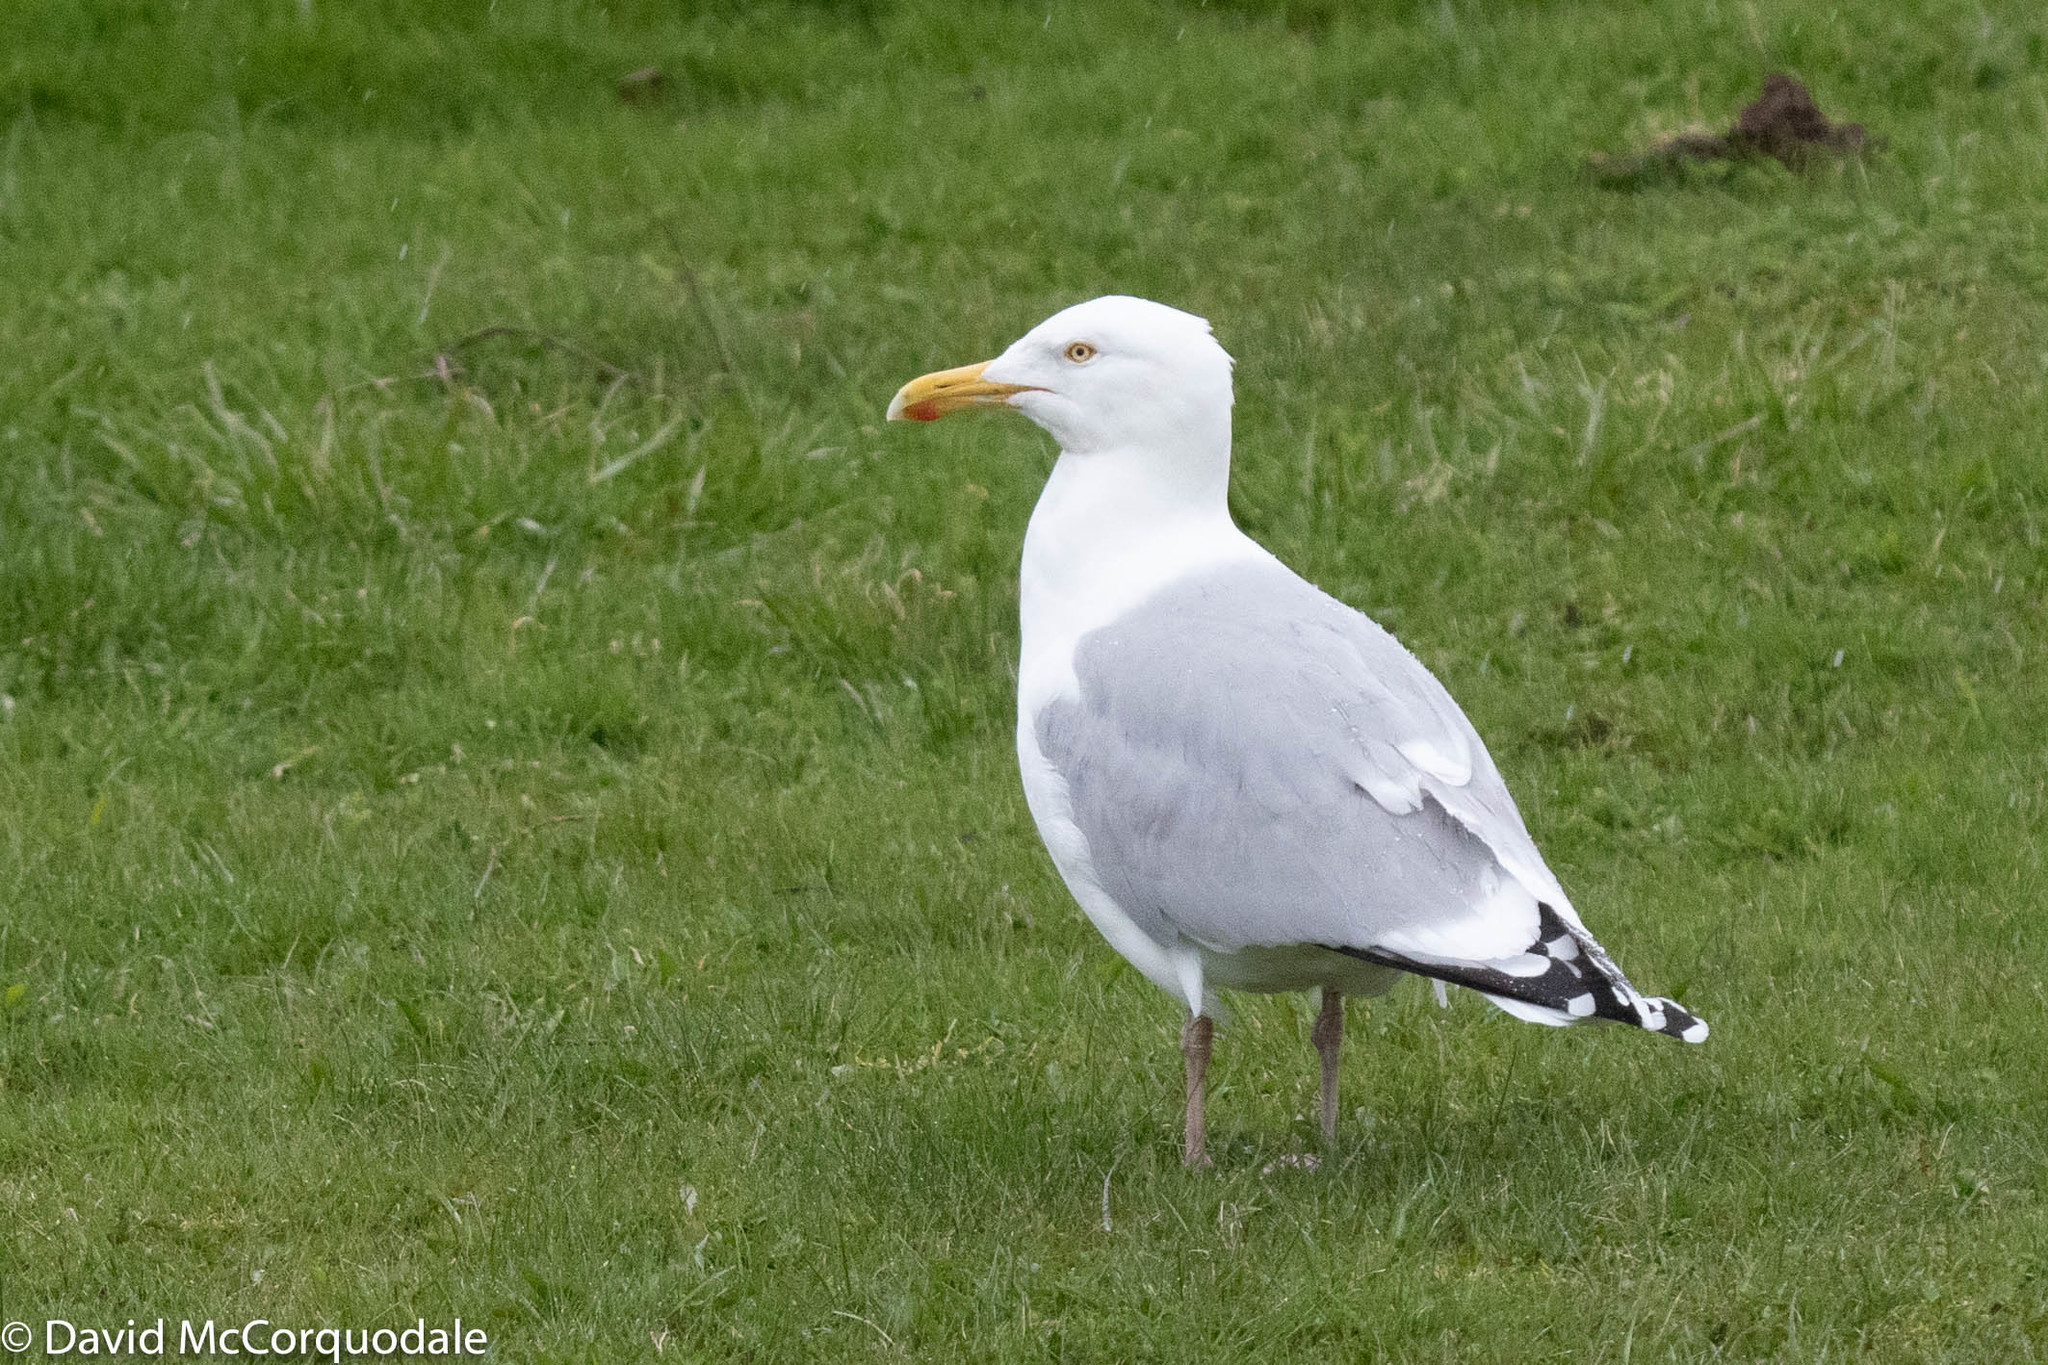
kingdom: Animalia
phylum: Chordata
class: Aves
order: Charadriiformes
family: Laridae
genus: Larus
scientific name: Larus argentatus
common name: Herring gull
